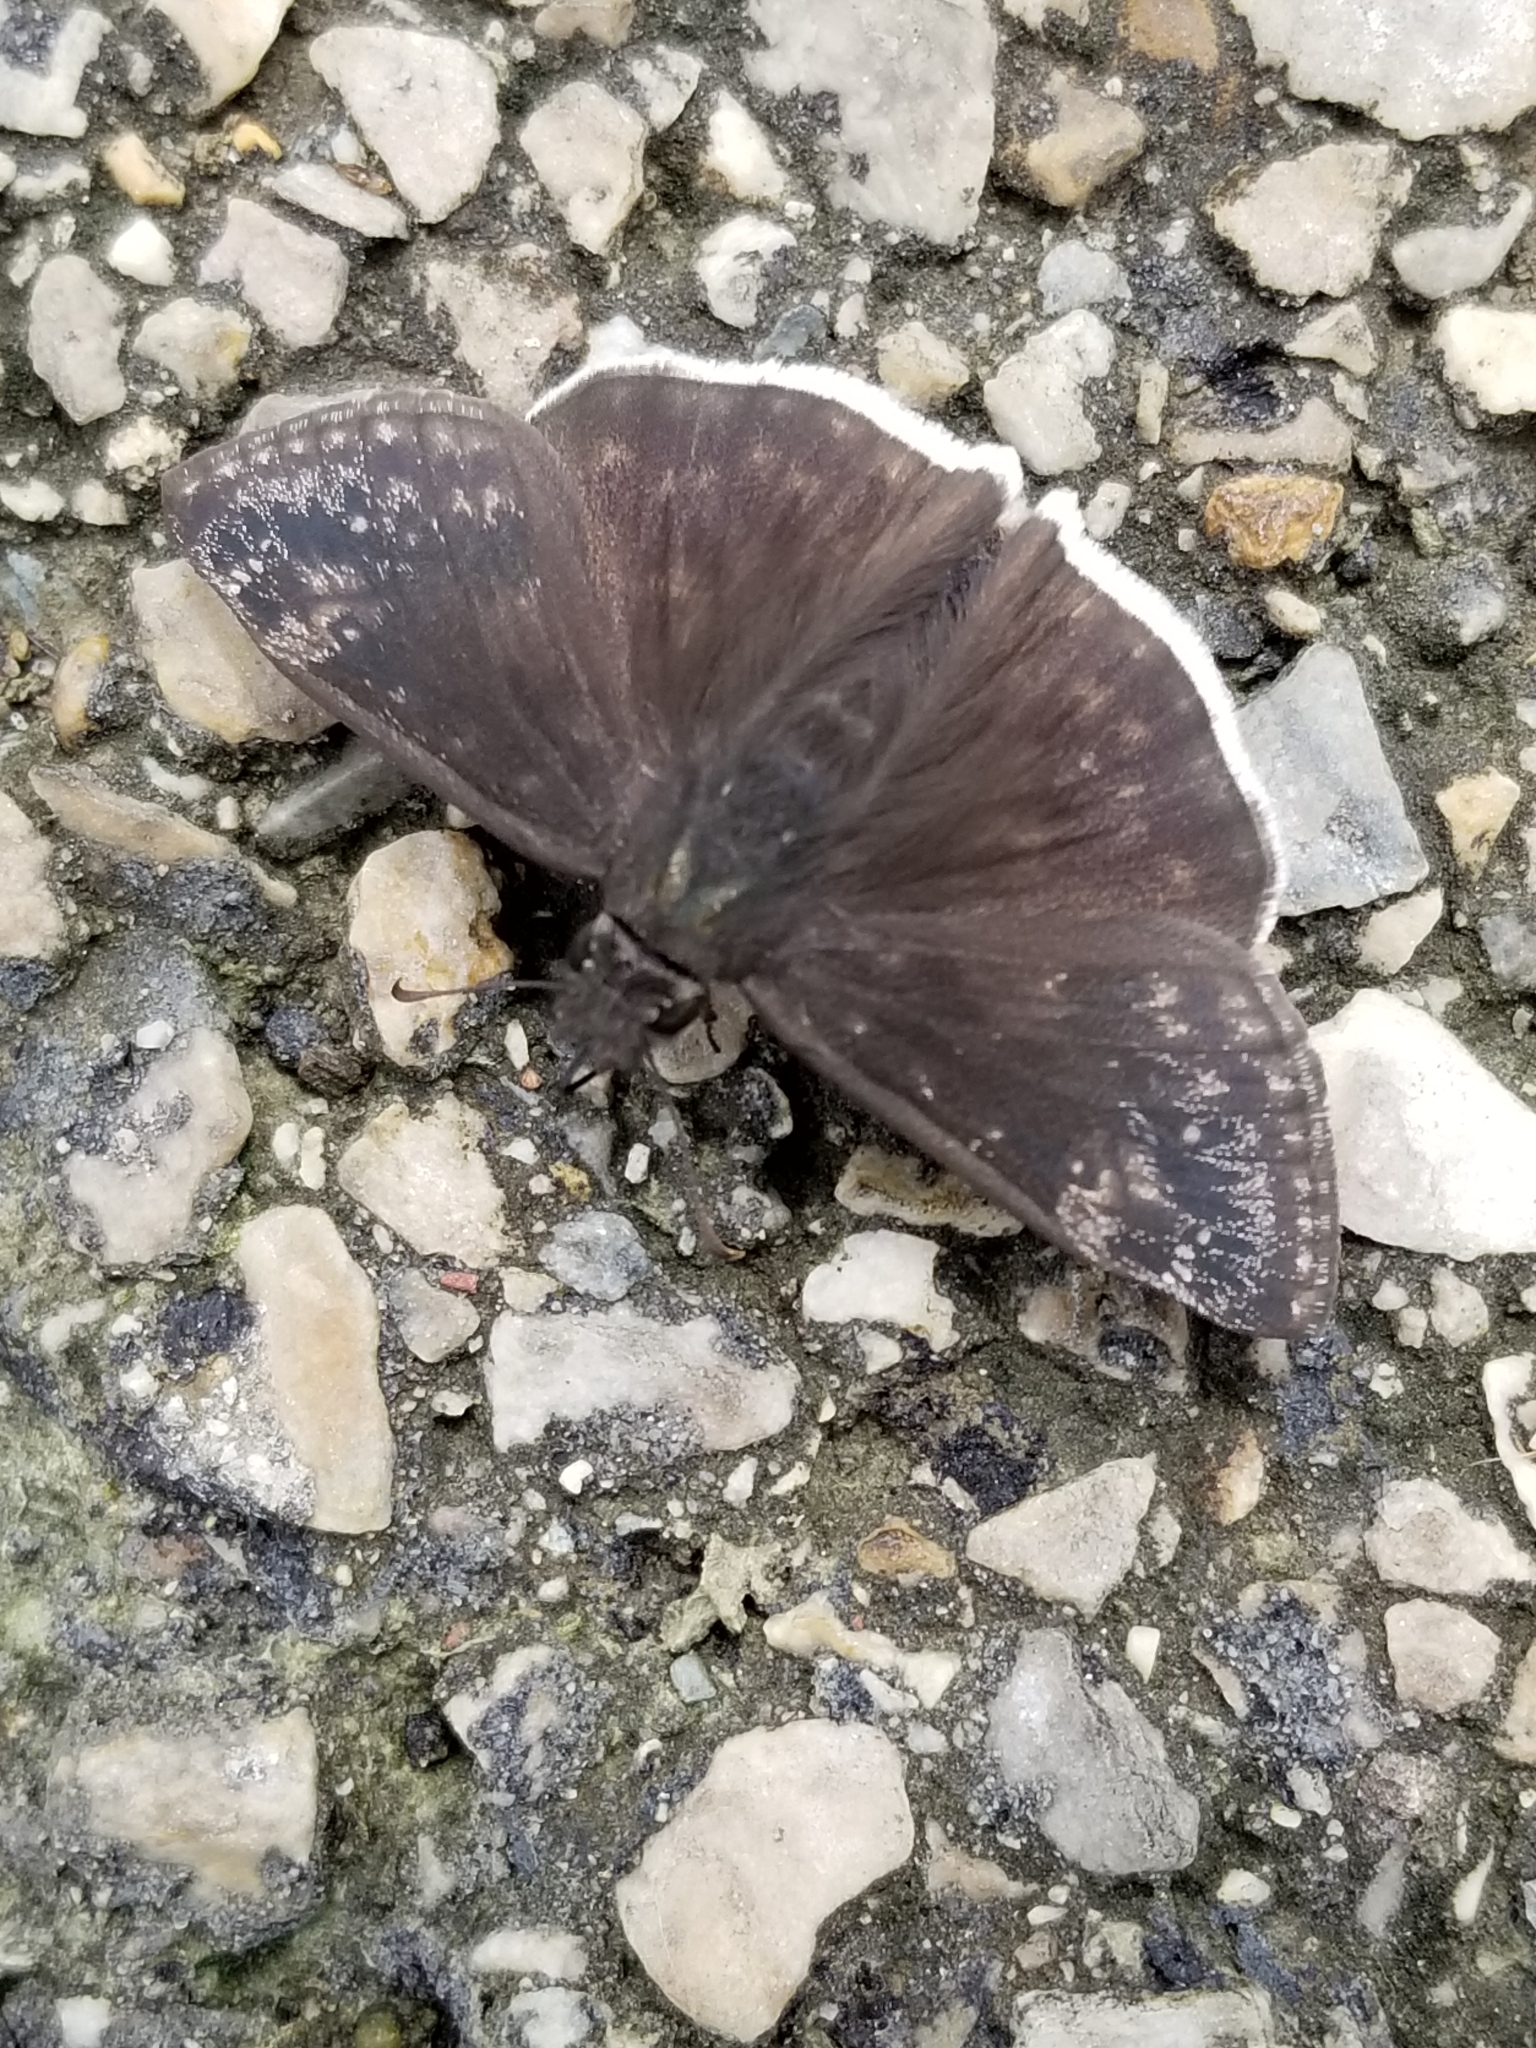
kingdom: Animalia
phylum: Arthropoda
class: Insecta
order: Lepidoptera
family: Hesperiidae
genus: Erynnis
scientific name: Erynnis funeralis
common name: Funereal duskywing
